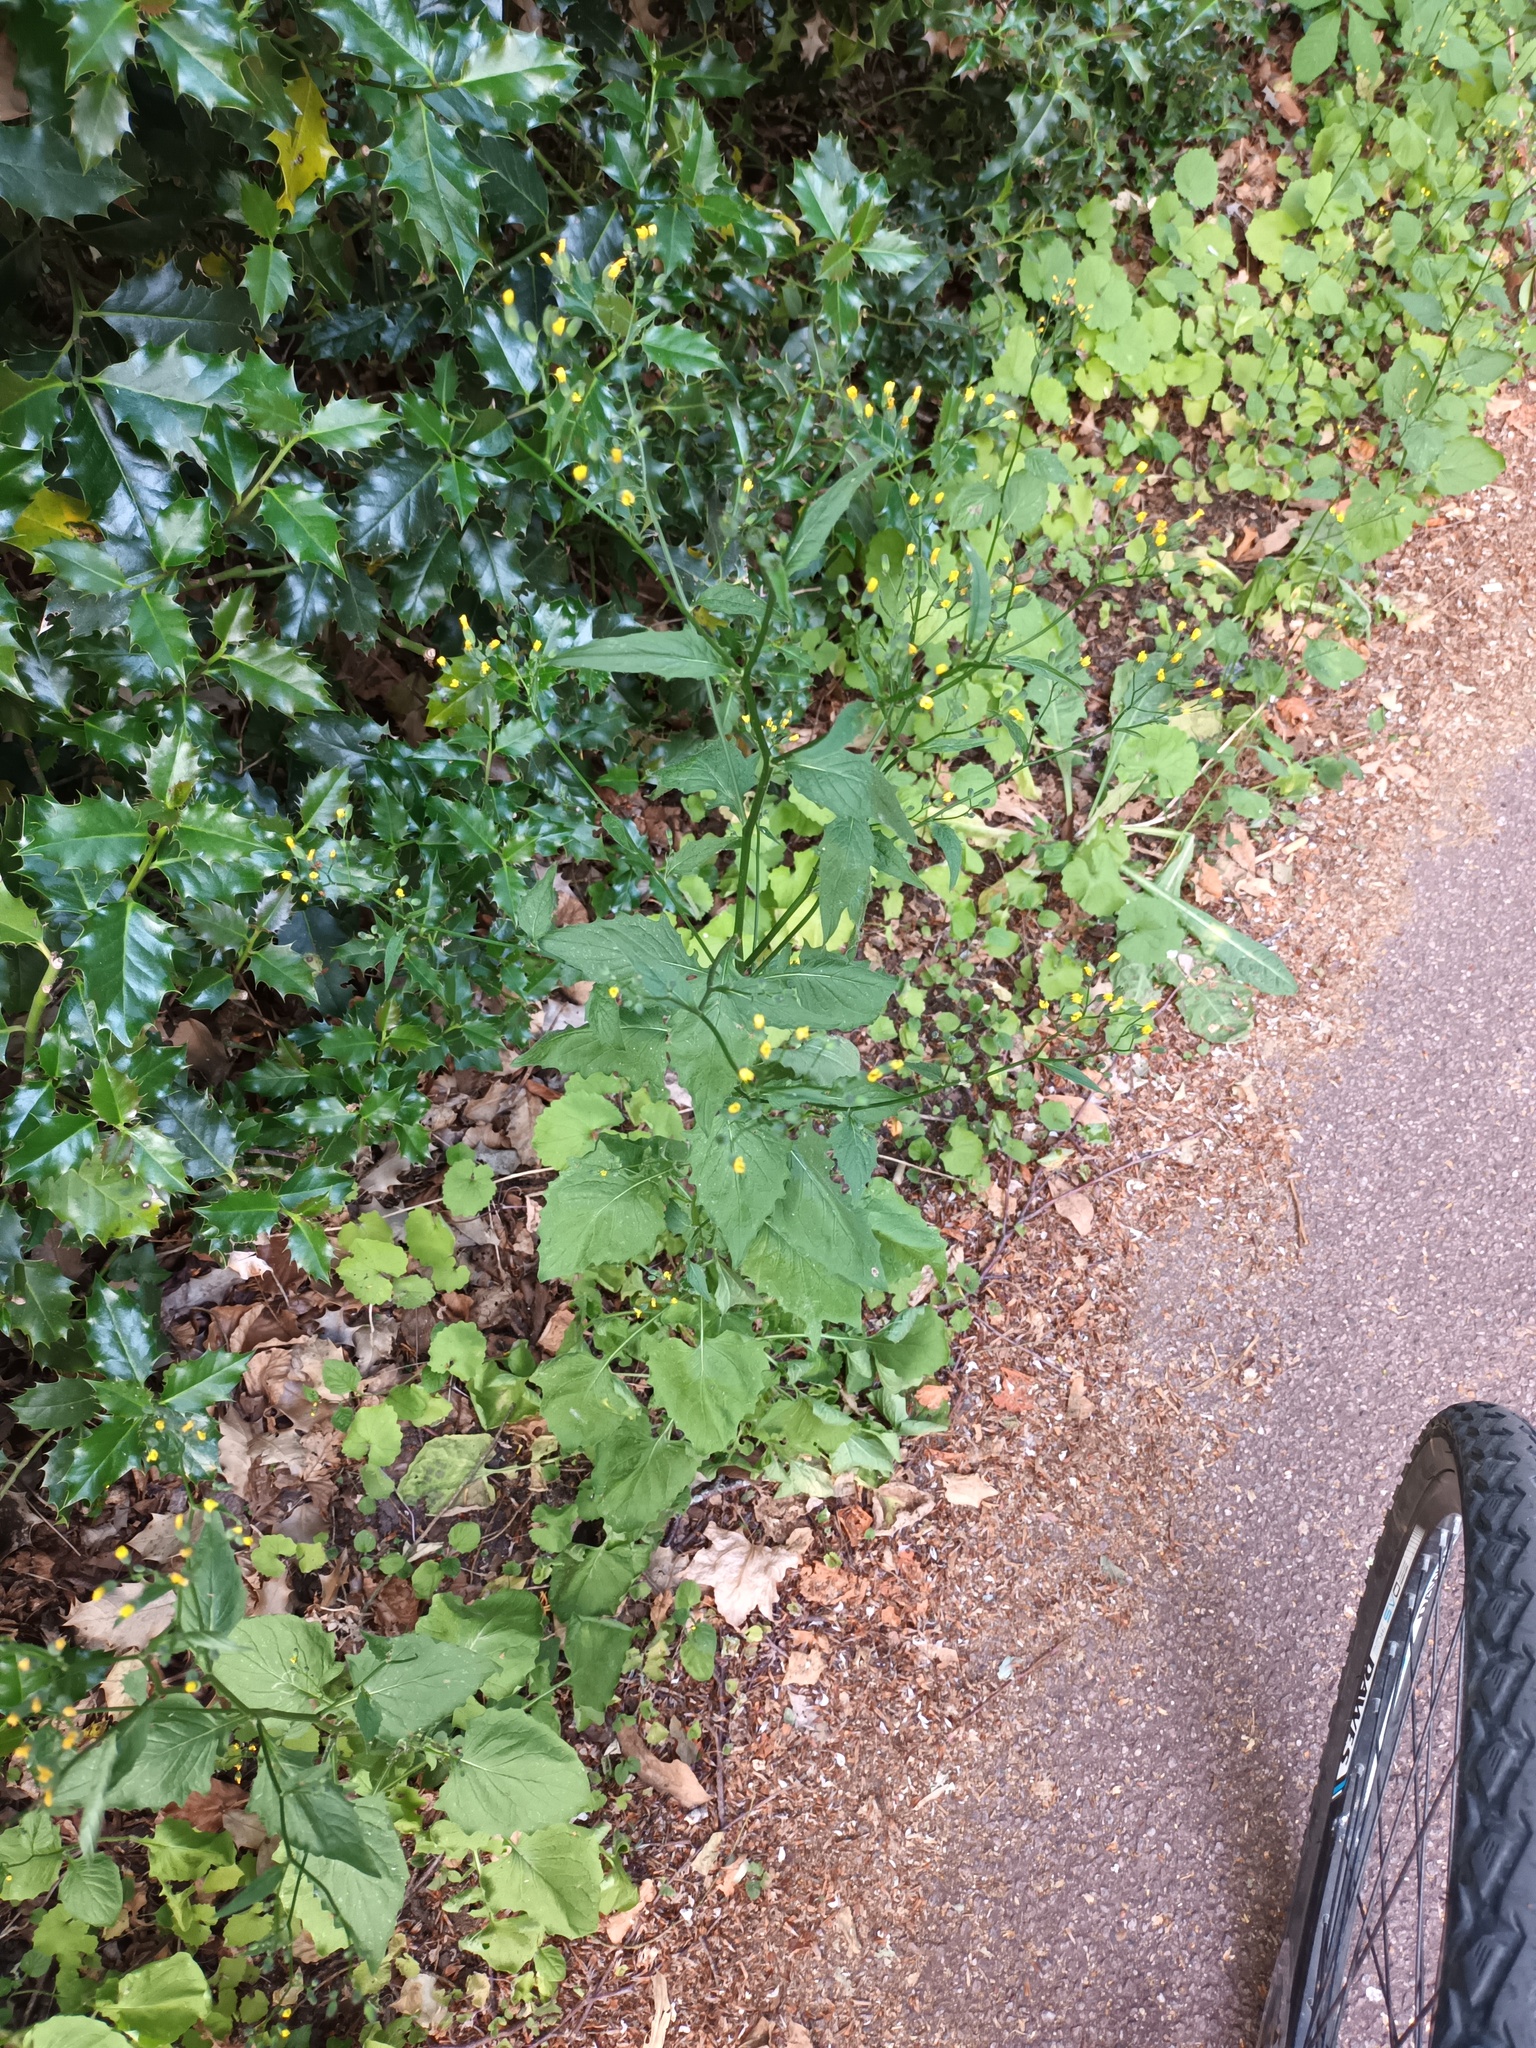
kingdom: Plantae
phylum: Tracheophyta
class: Magnoliopsida
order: Asterales
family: Asteraceae
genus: Lapsana
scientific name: Lapsana communis
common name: Nipplewort
